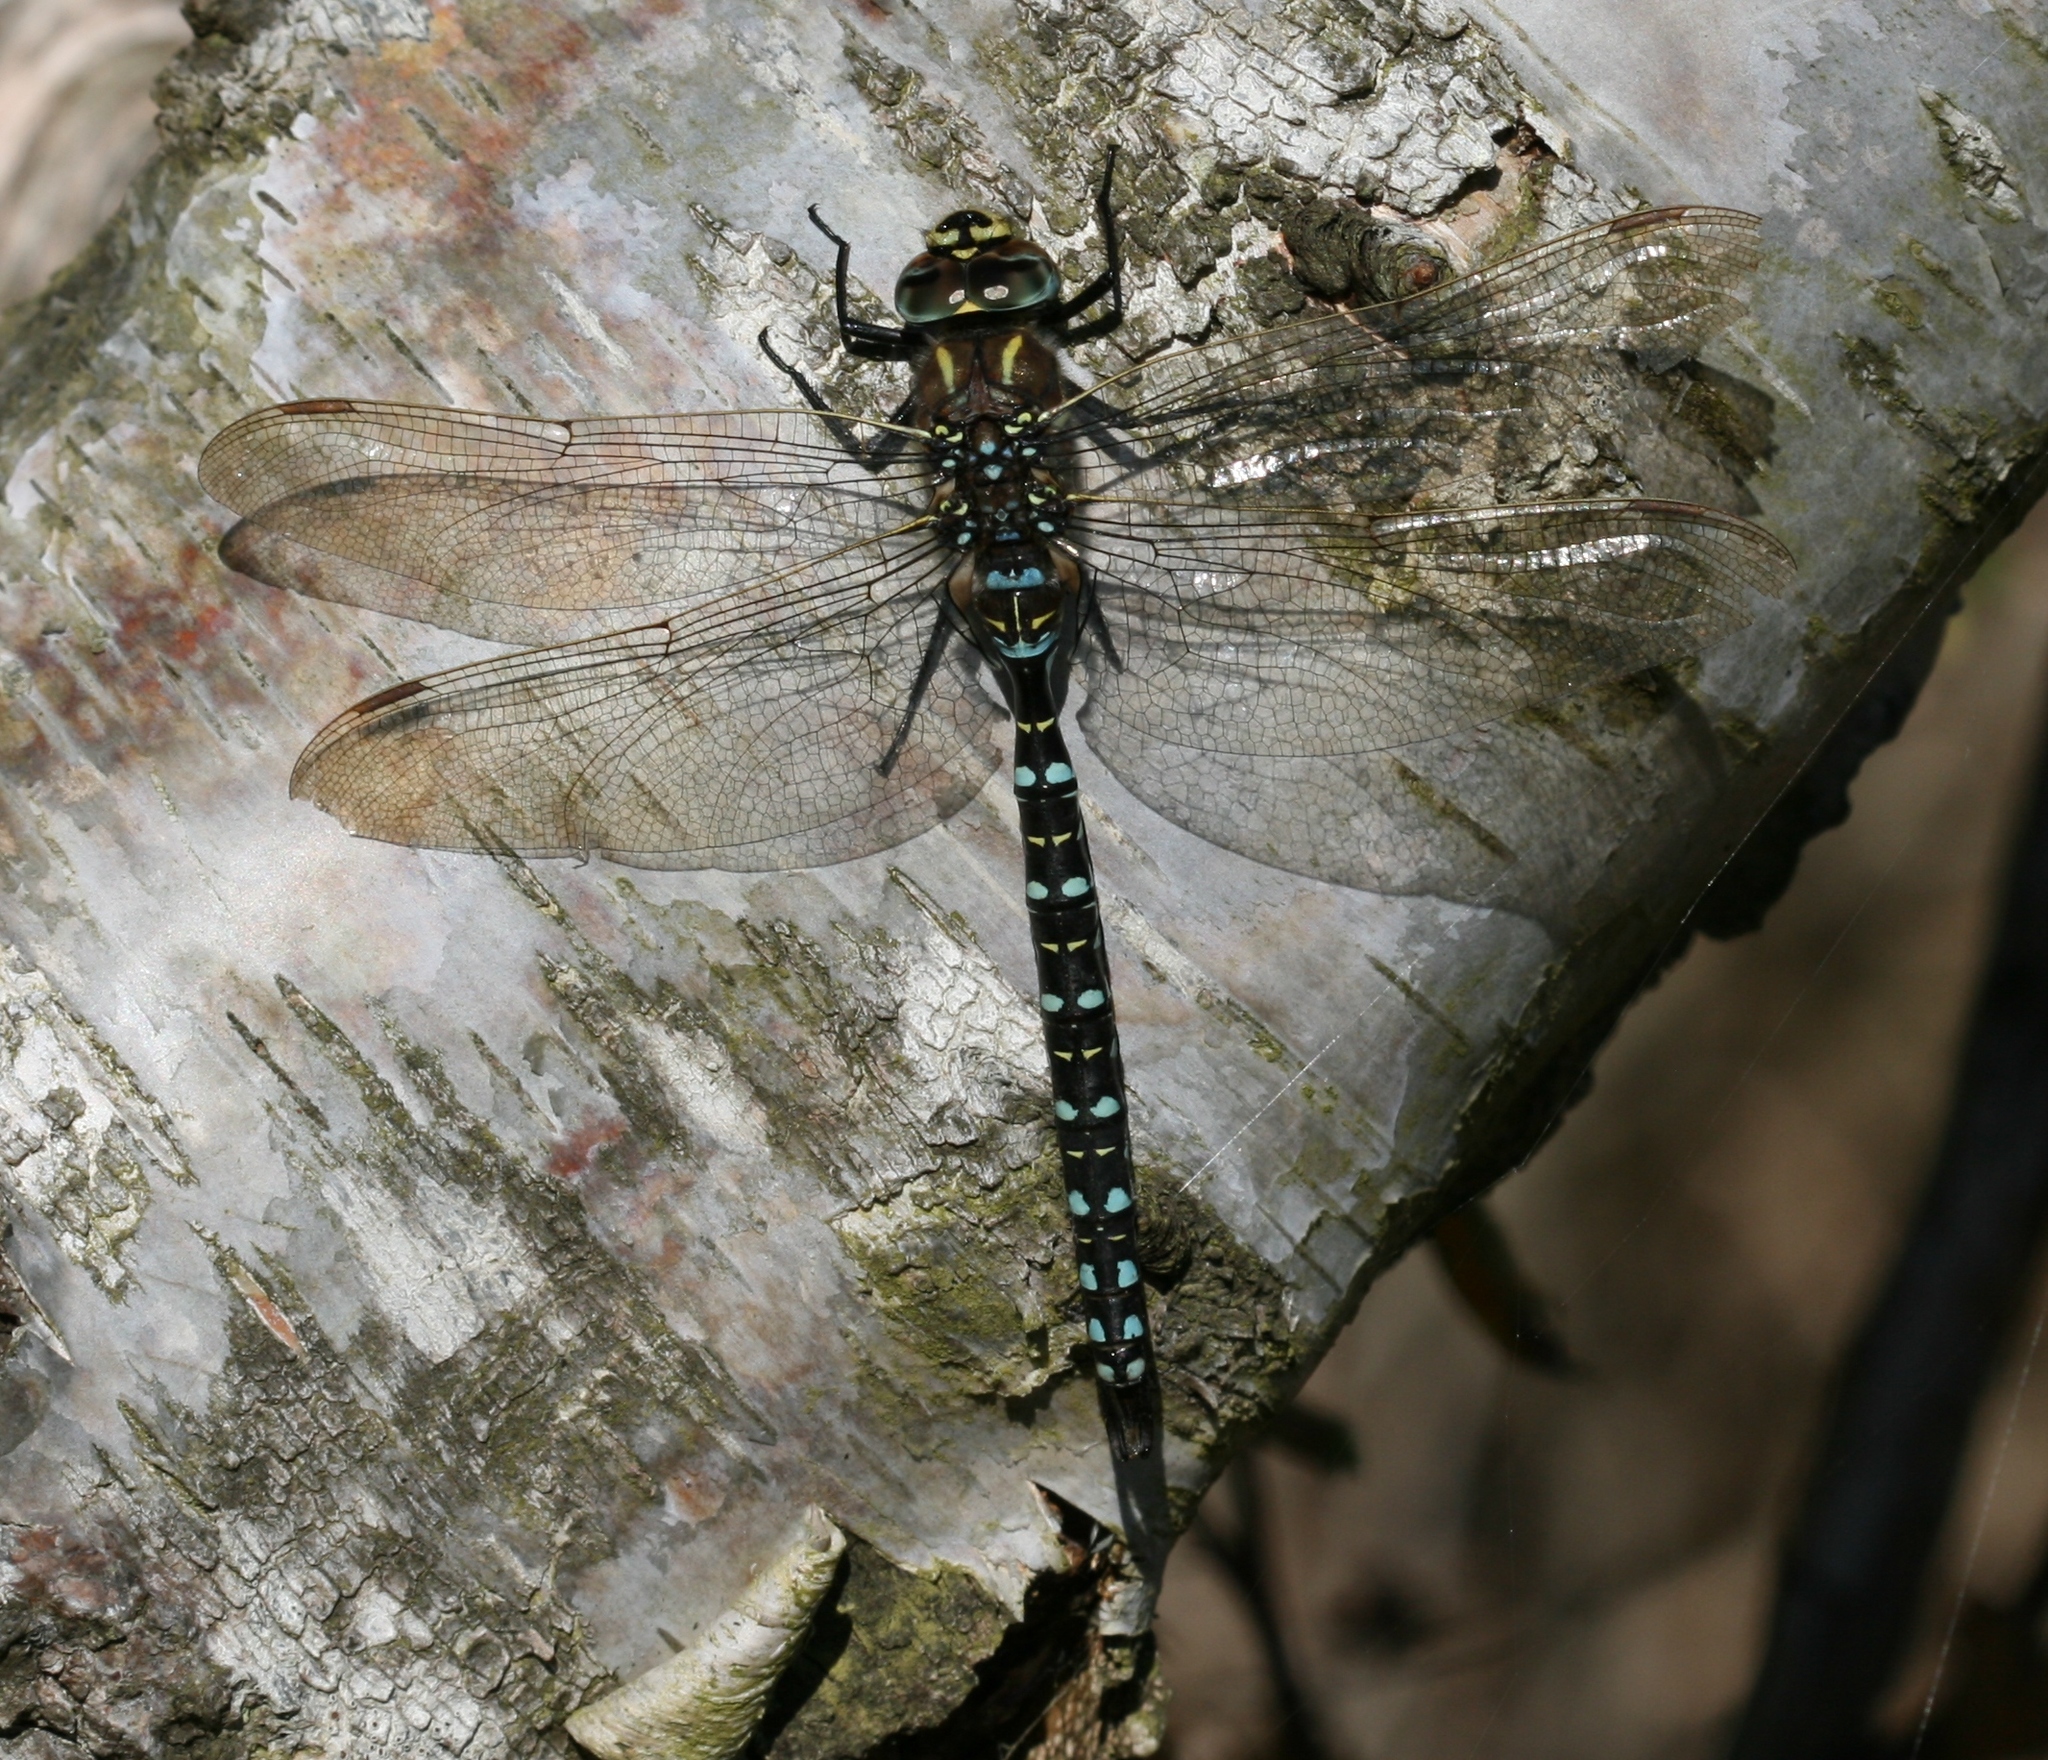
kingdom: Animalia
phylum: Arthropoda
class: Insecta
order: Odonata
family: Aeshnidae
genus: Aeshna
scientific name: Aeshna juncea
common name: Moorland hawker
